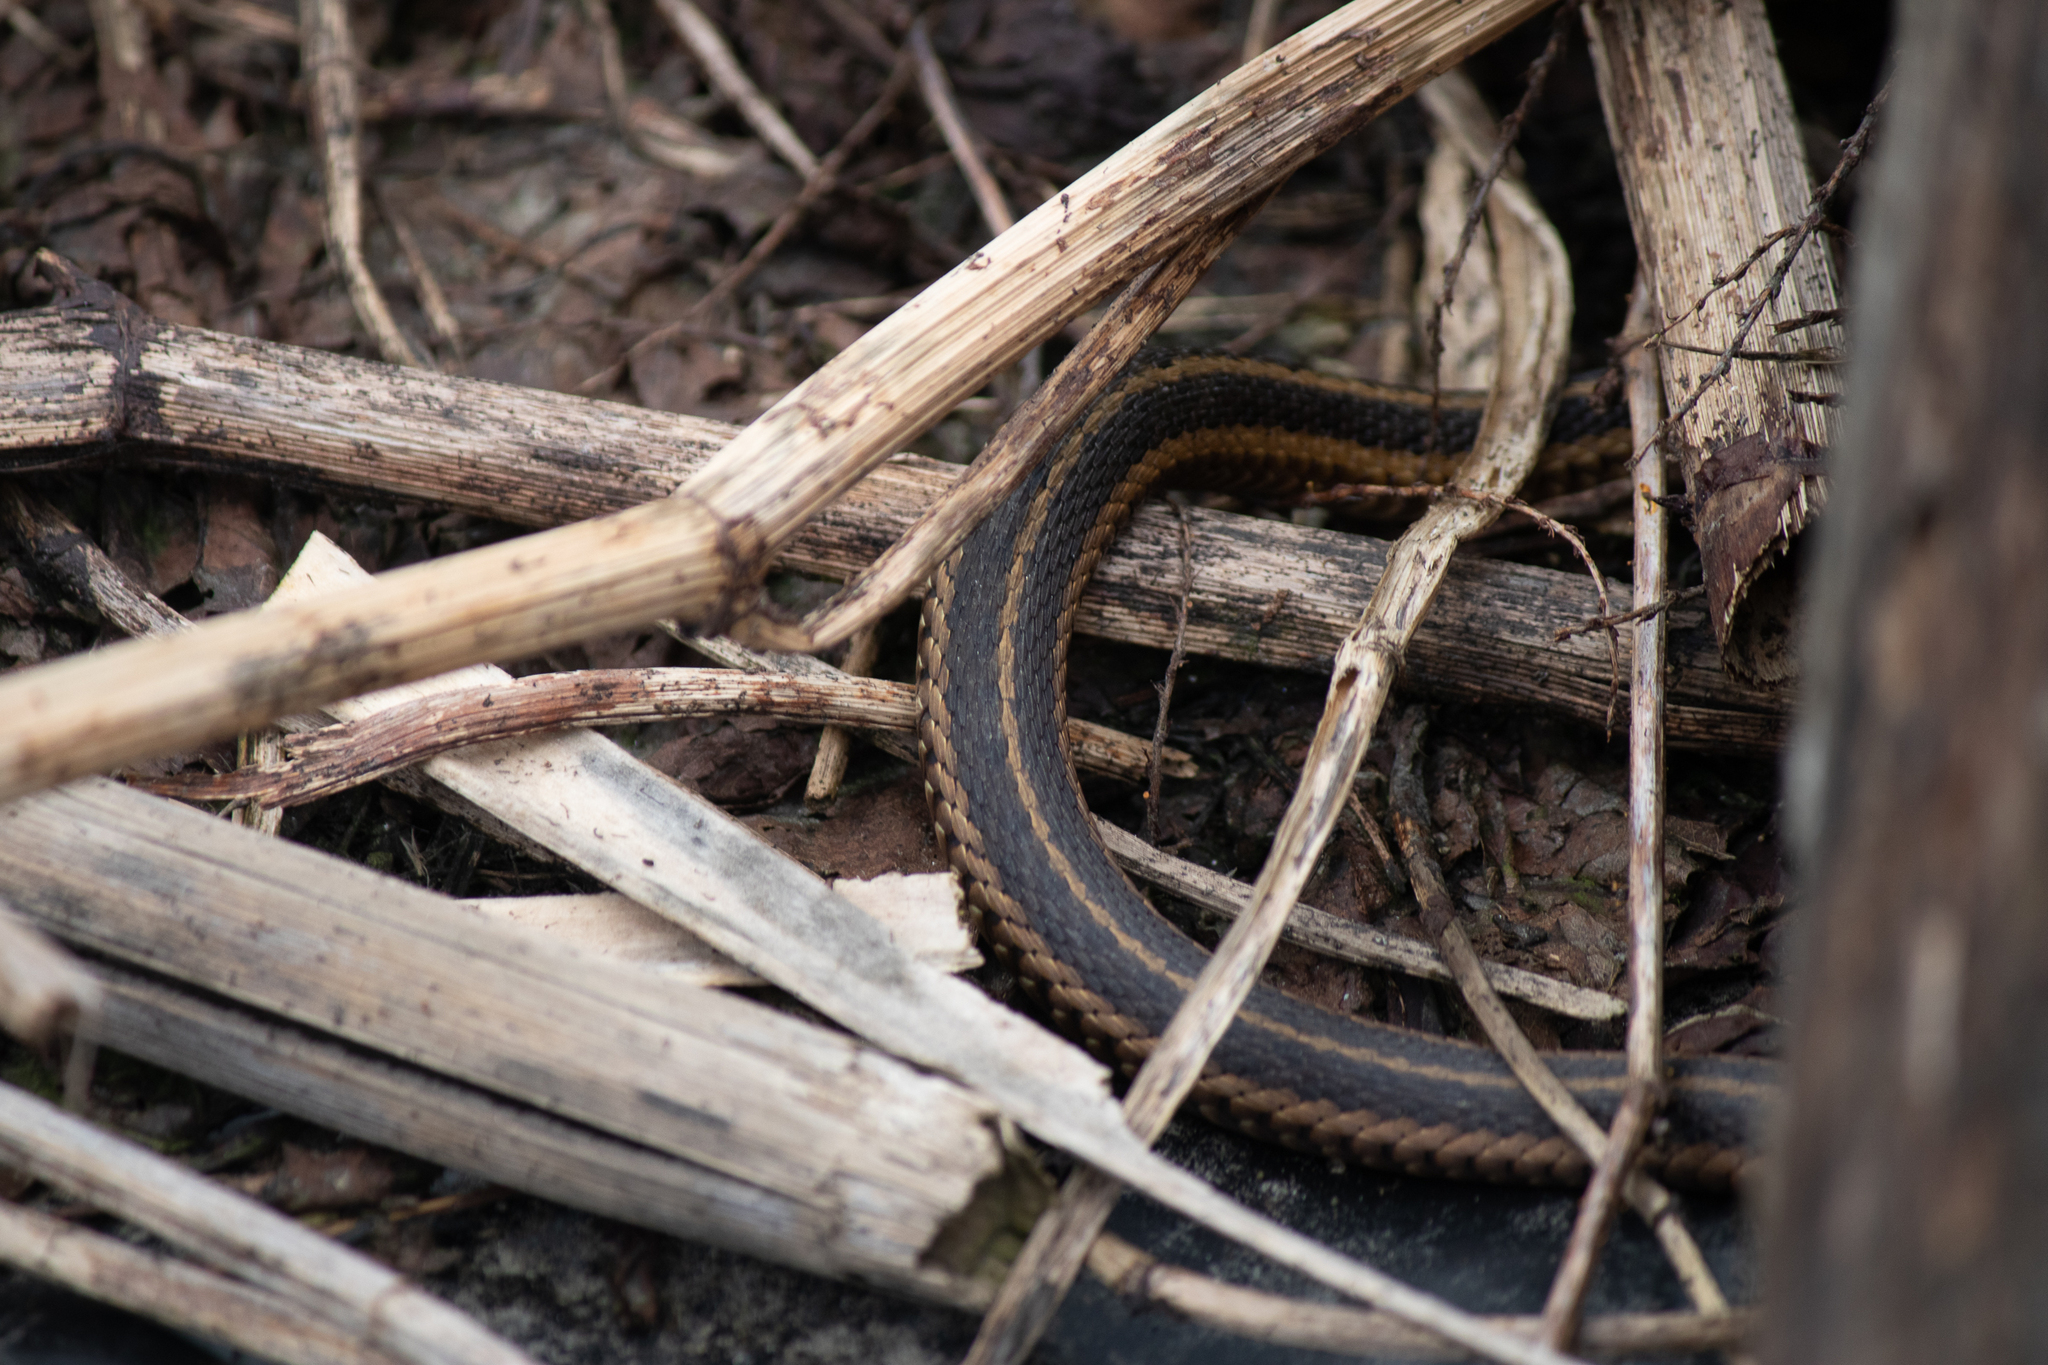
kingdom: Animalia
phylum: Chordata
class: Squamata
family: Colubridae
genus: Thamnophis
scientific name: Thamnophis sirtalis
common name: Common garter snake
